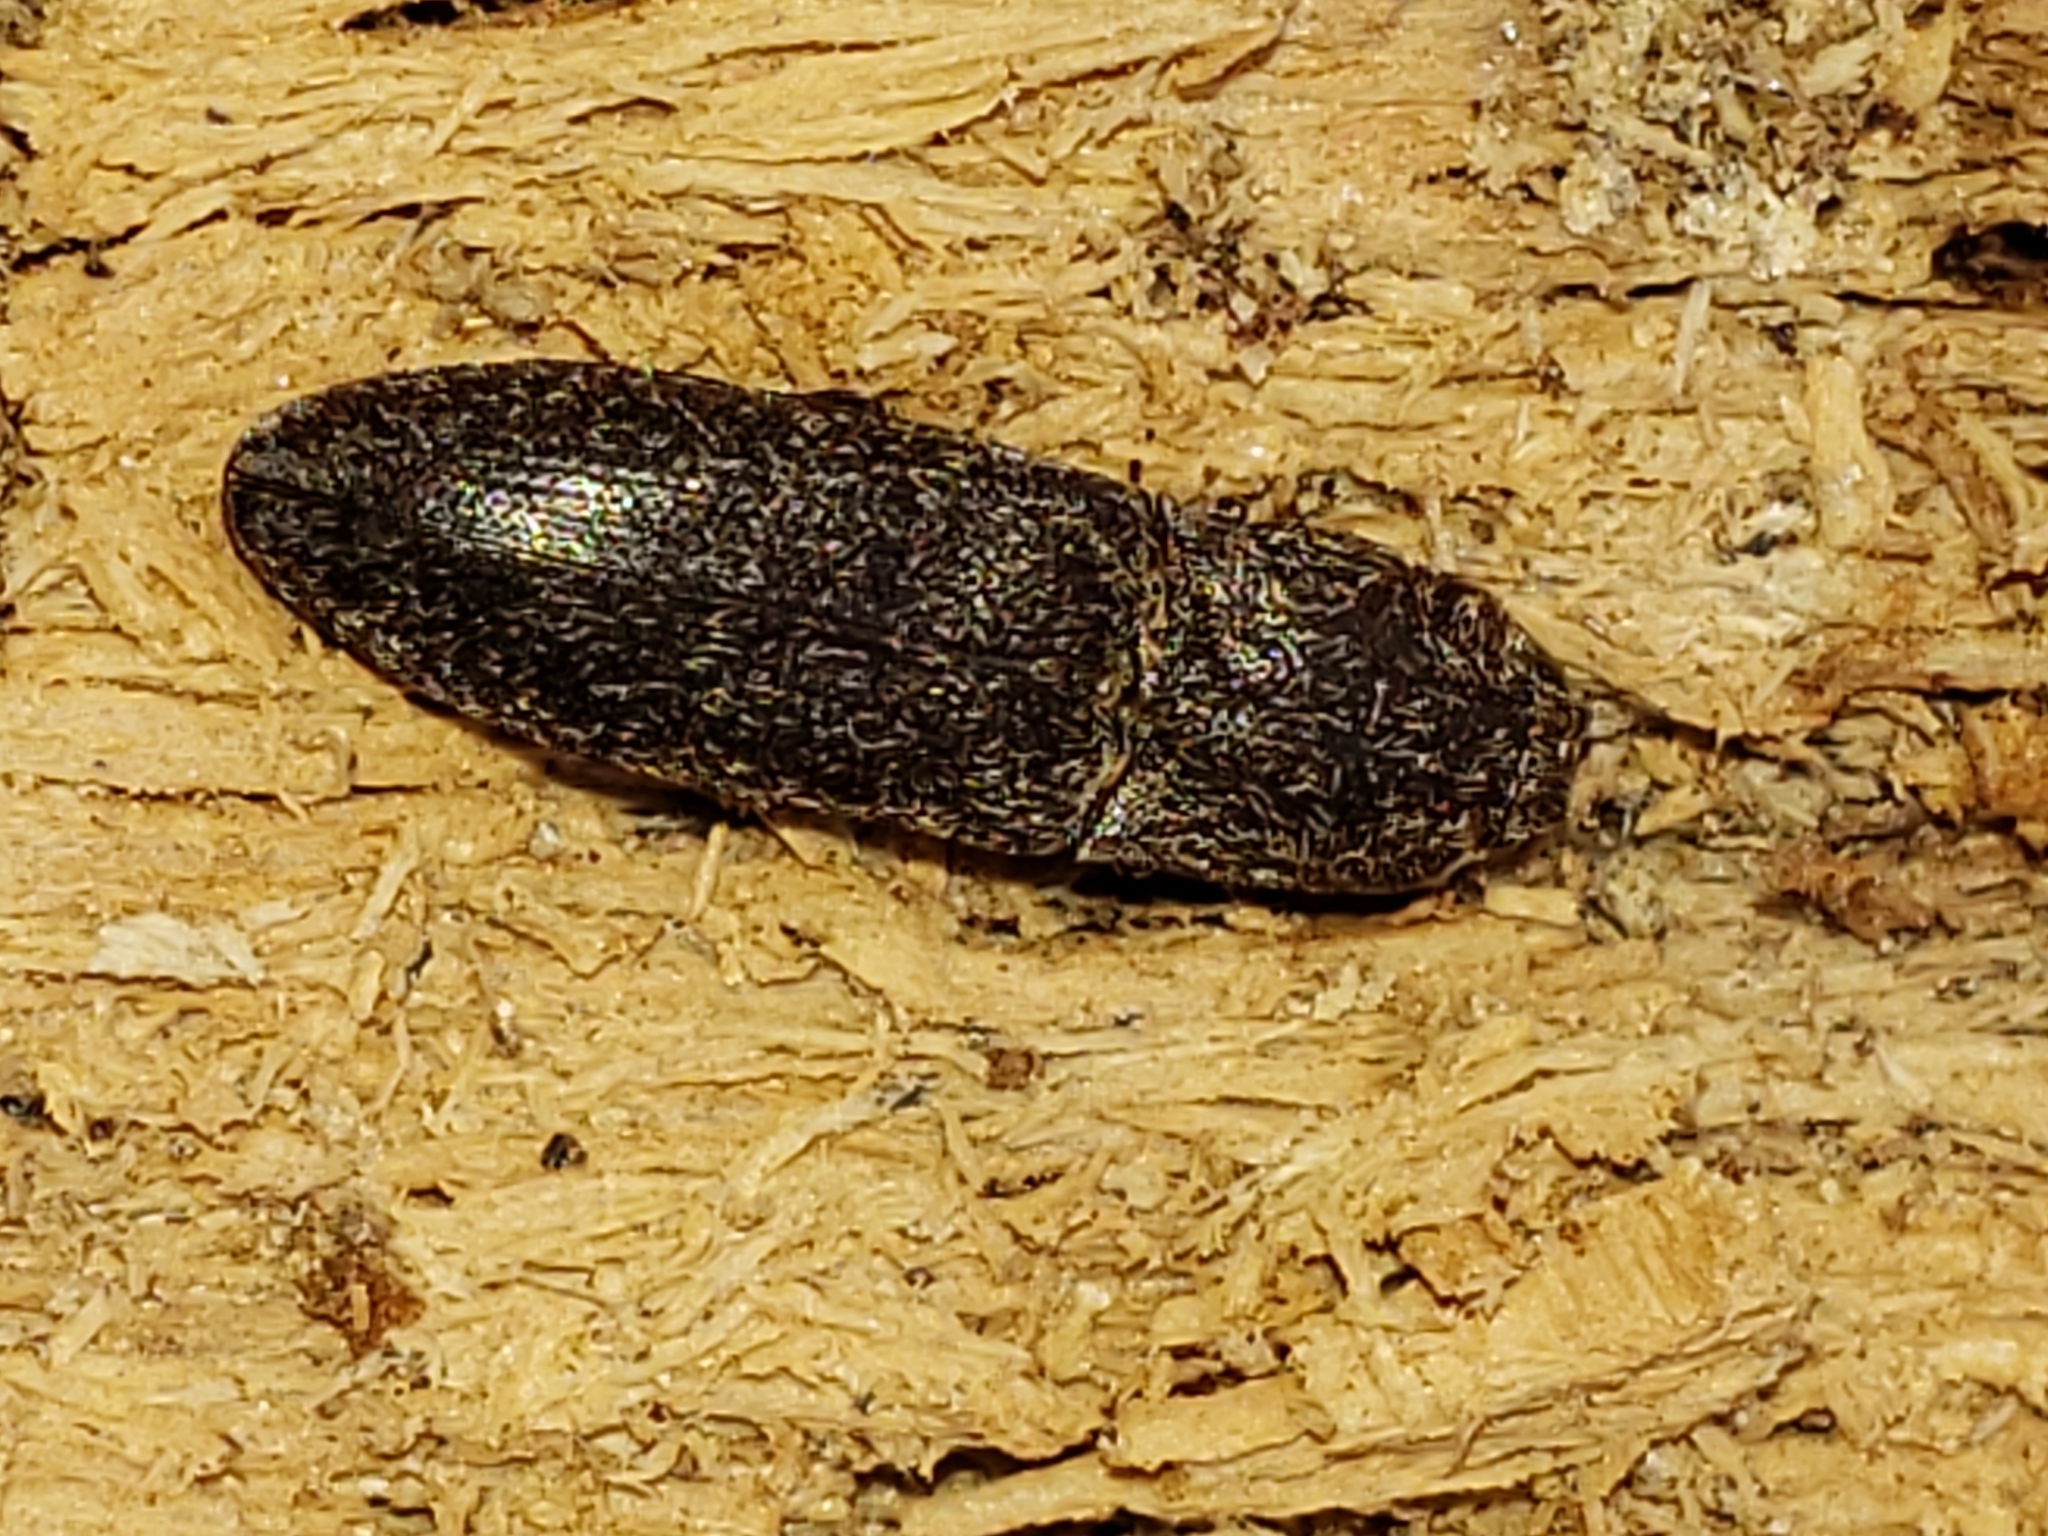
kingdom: Animalia
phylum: Arthropoda
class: Insecta
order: Coleoptera
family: Elateridae
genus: Lacon
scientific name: Lacon impressicollis
